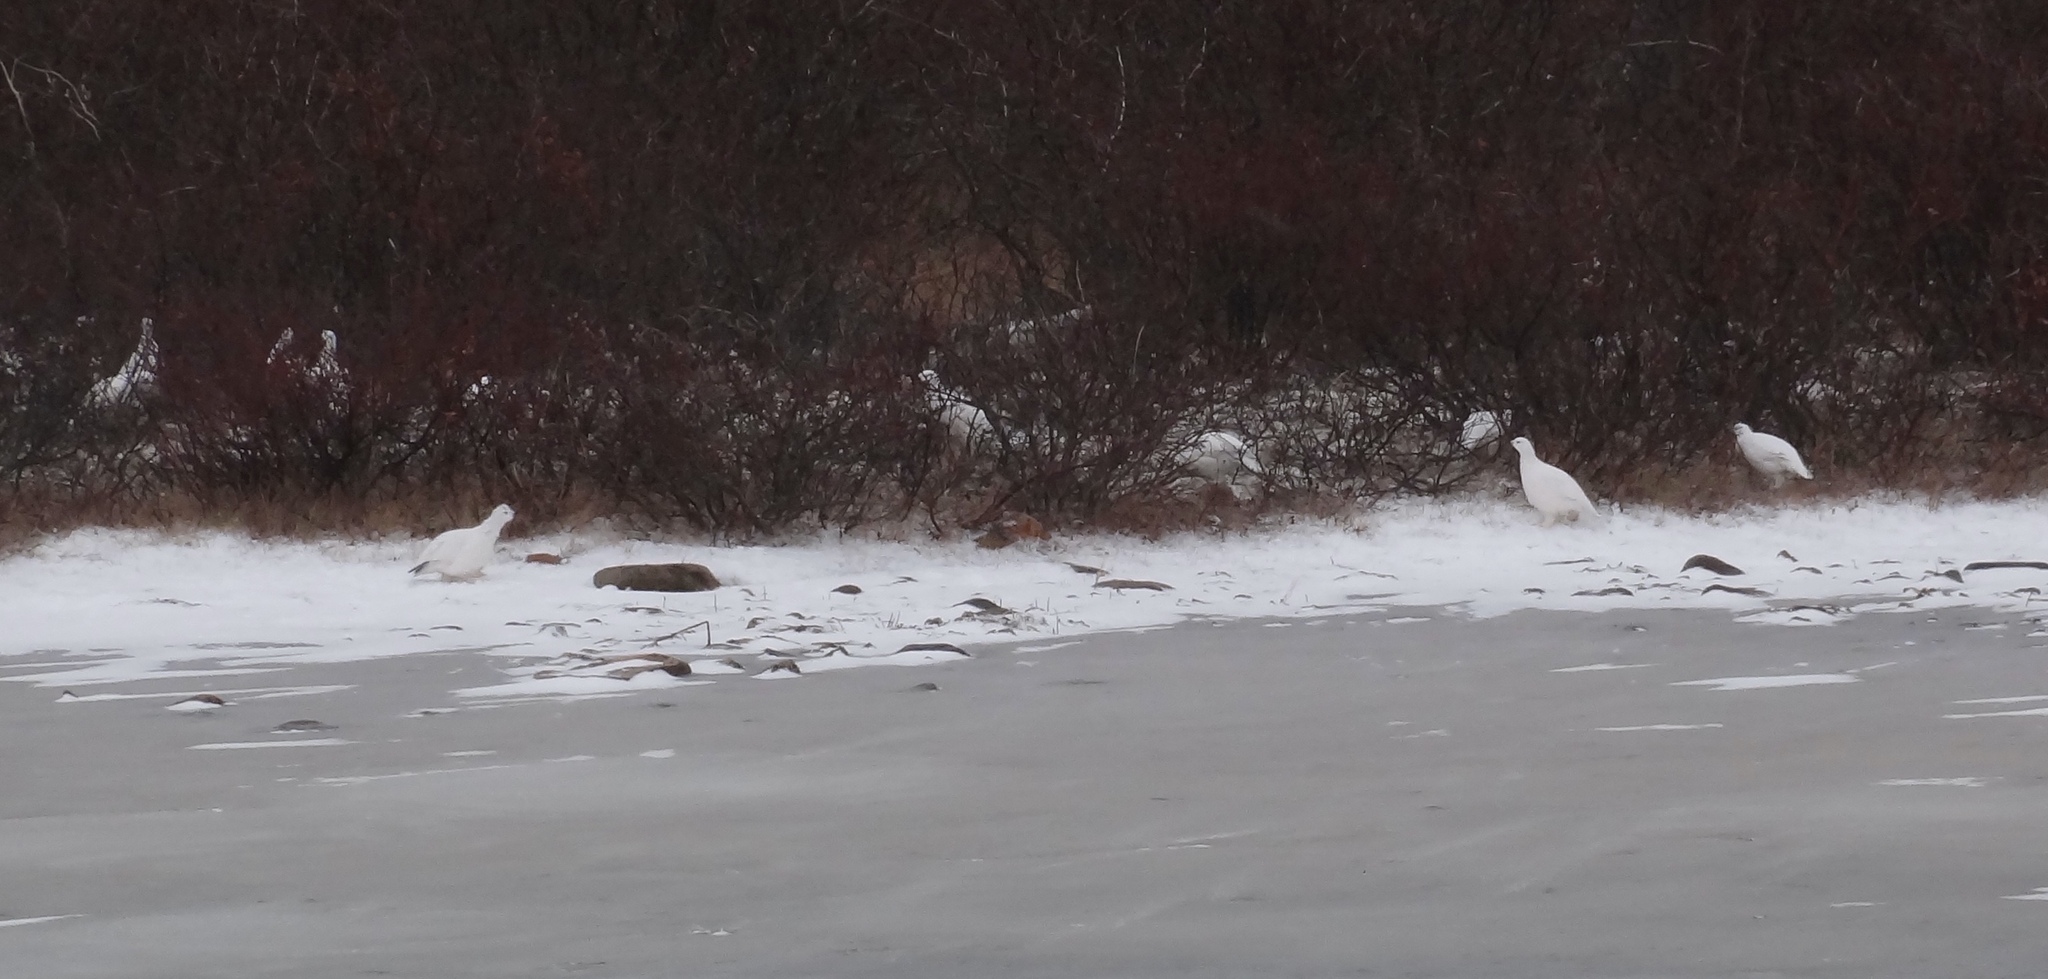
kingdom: Animalia
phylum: Chordata
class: Aves
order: Galliformes
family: Phasianidae
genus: Lagopus
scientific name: Lagopus lagopus
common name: Willow ptarmigan
